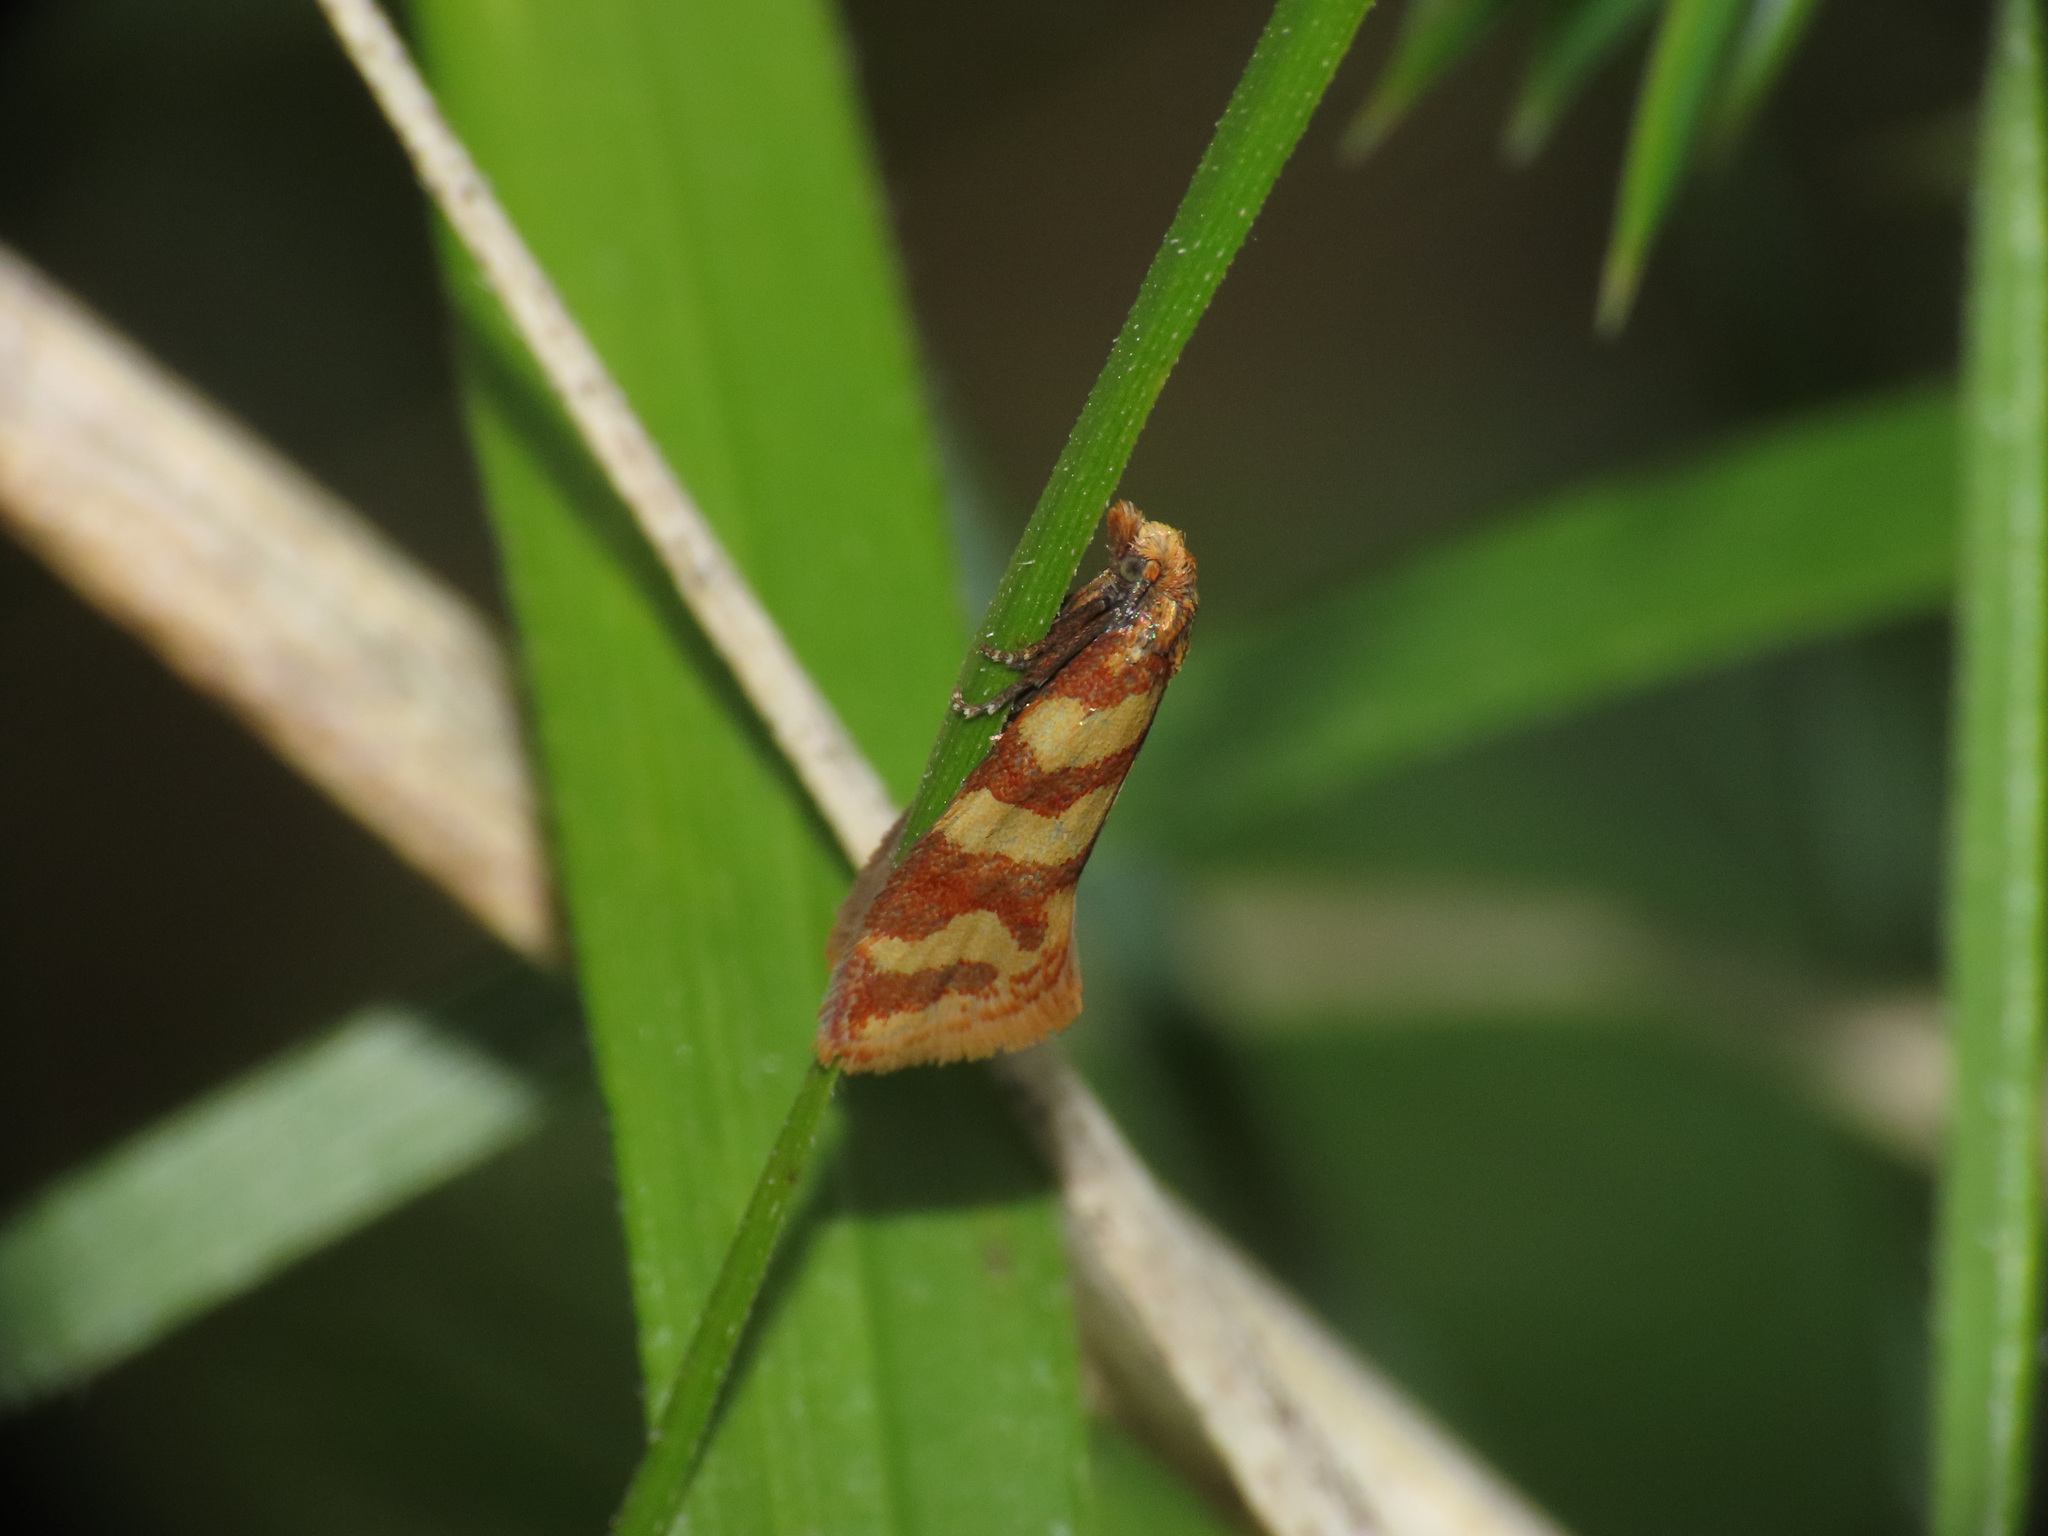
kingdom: Animalia
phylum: Arthropoda
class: Insecta
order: Lepidoptera
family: Tortricidae
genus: Aethes
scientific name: Aethes rutilana
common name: Juniper conch, pale juniper webworm
